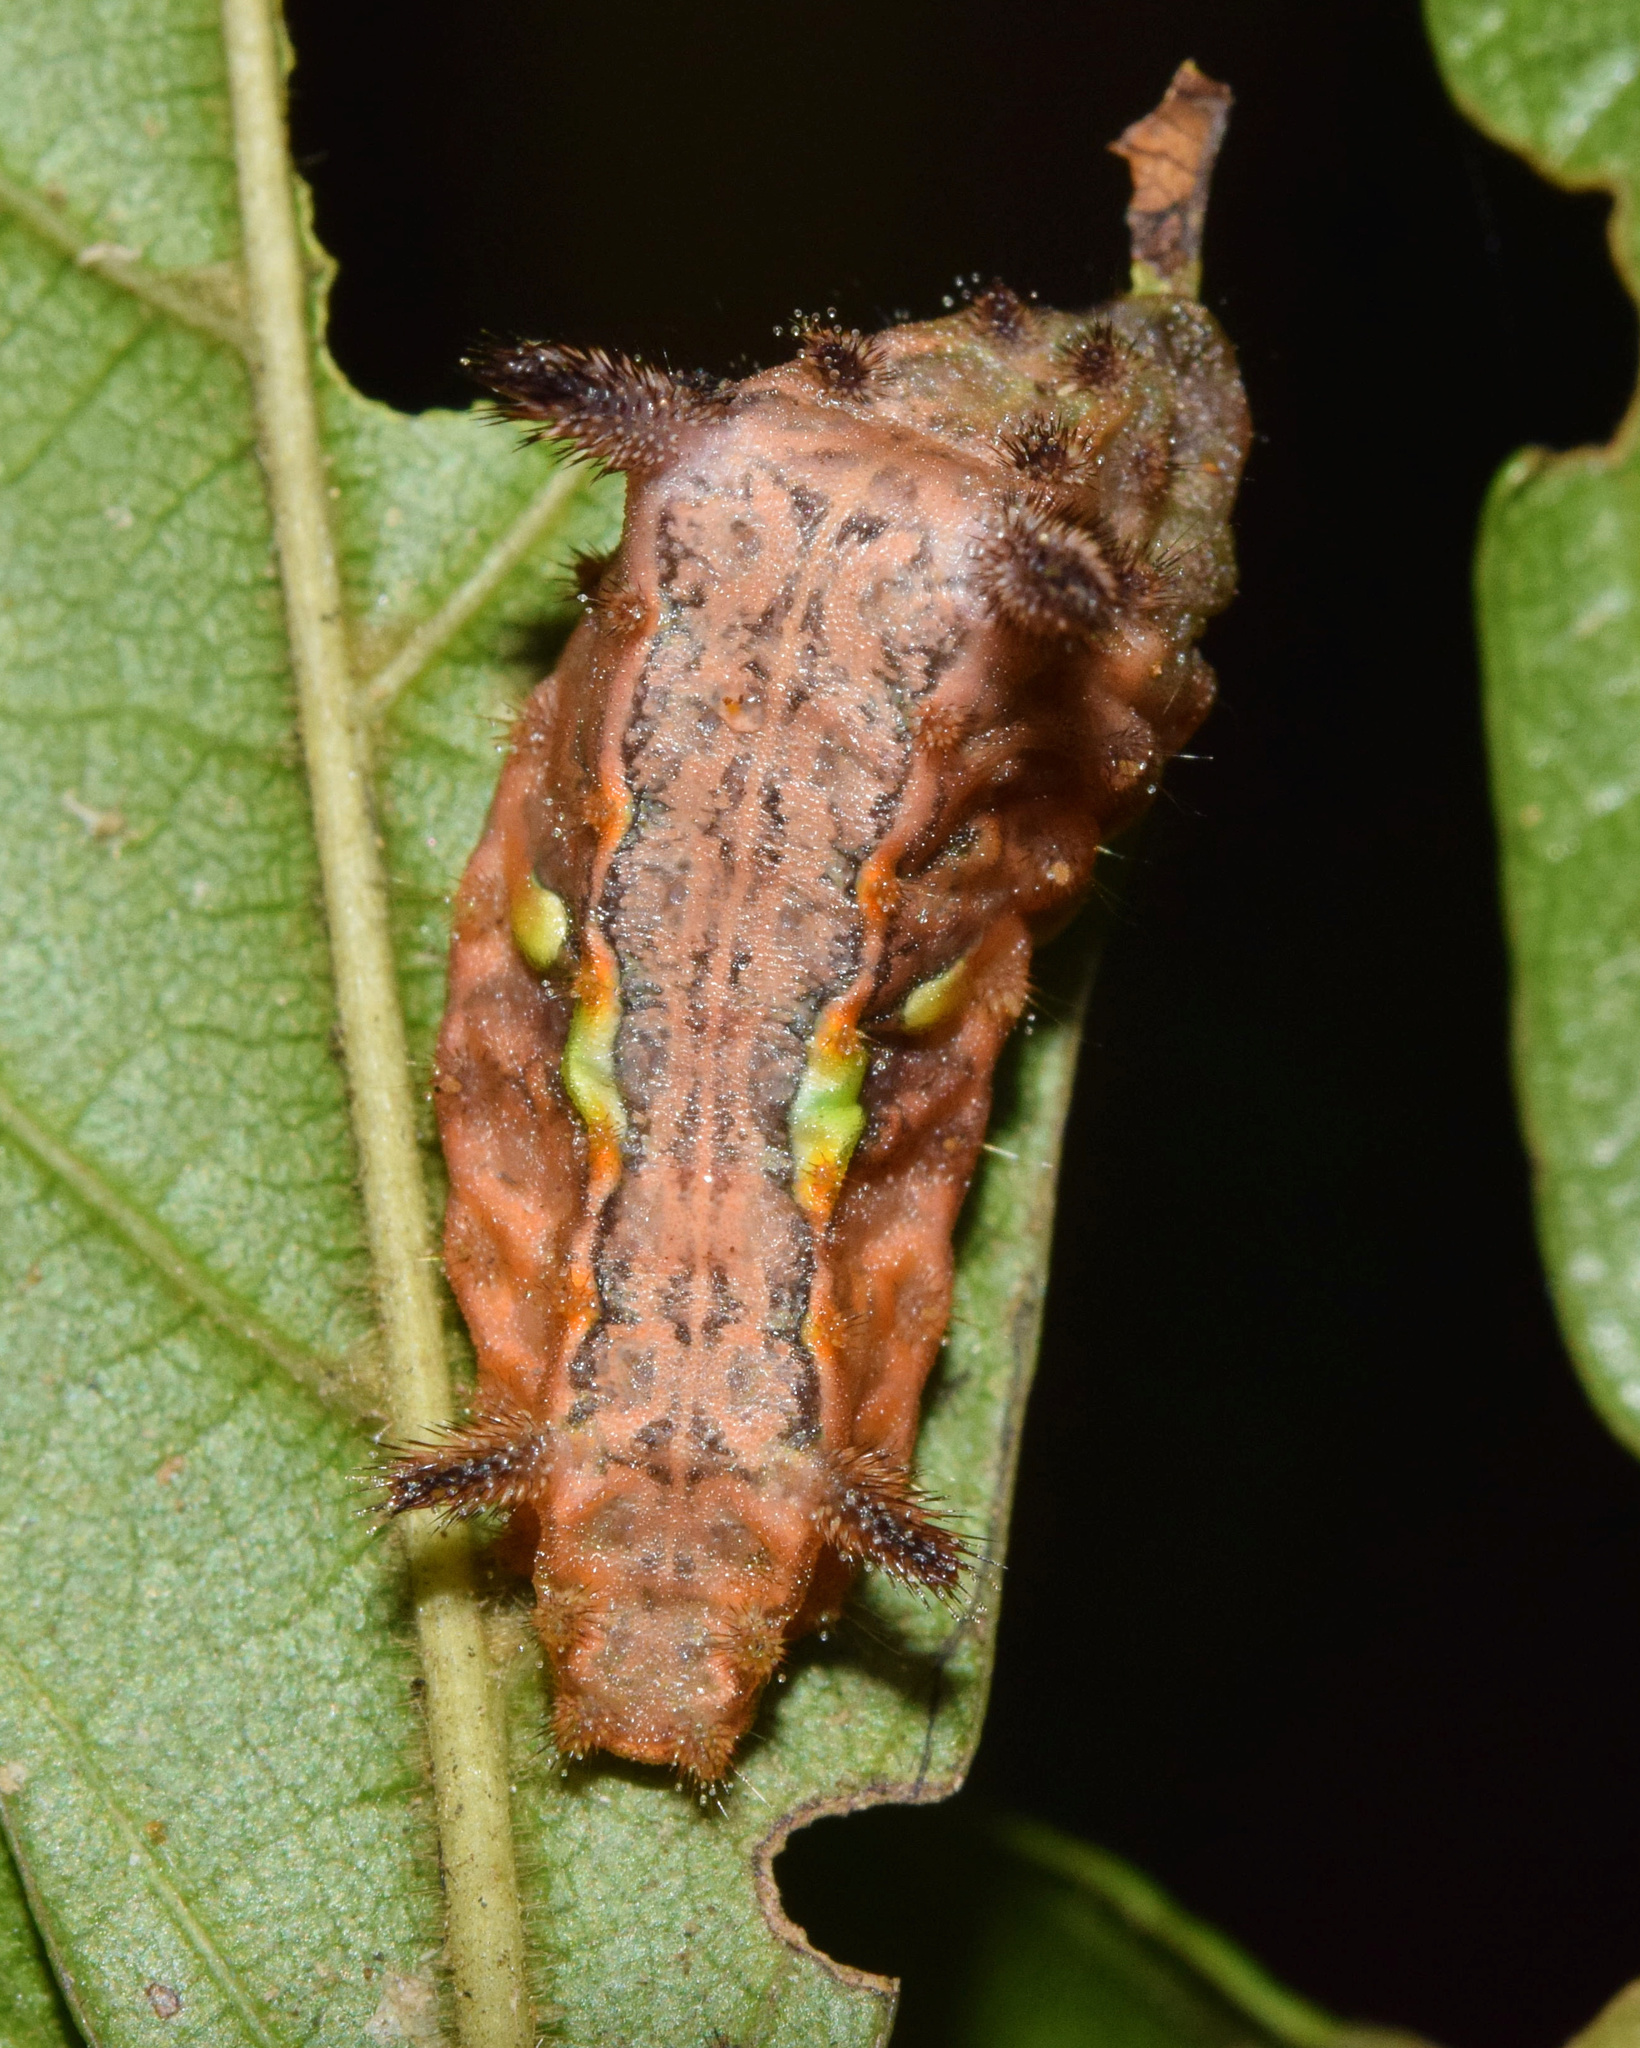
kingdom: Animalia
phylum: Arthropoda
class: Insecta
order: Lepidoptera
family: Limacodidae
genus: Neomocena
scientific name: Neomocena convergens
